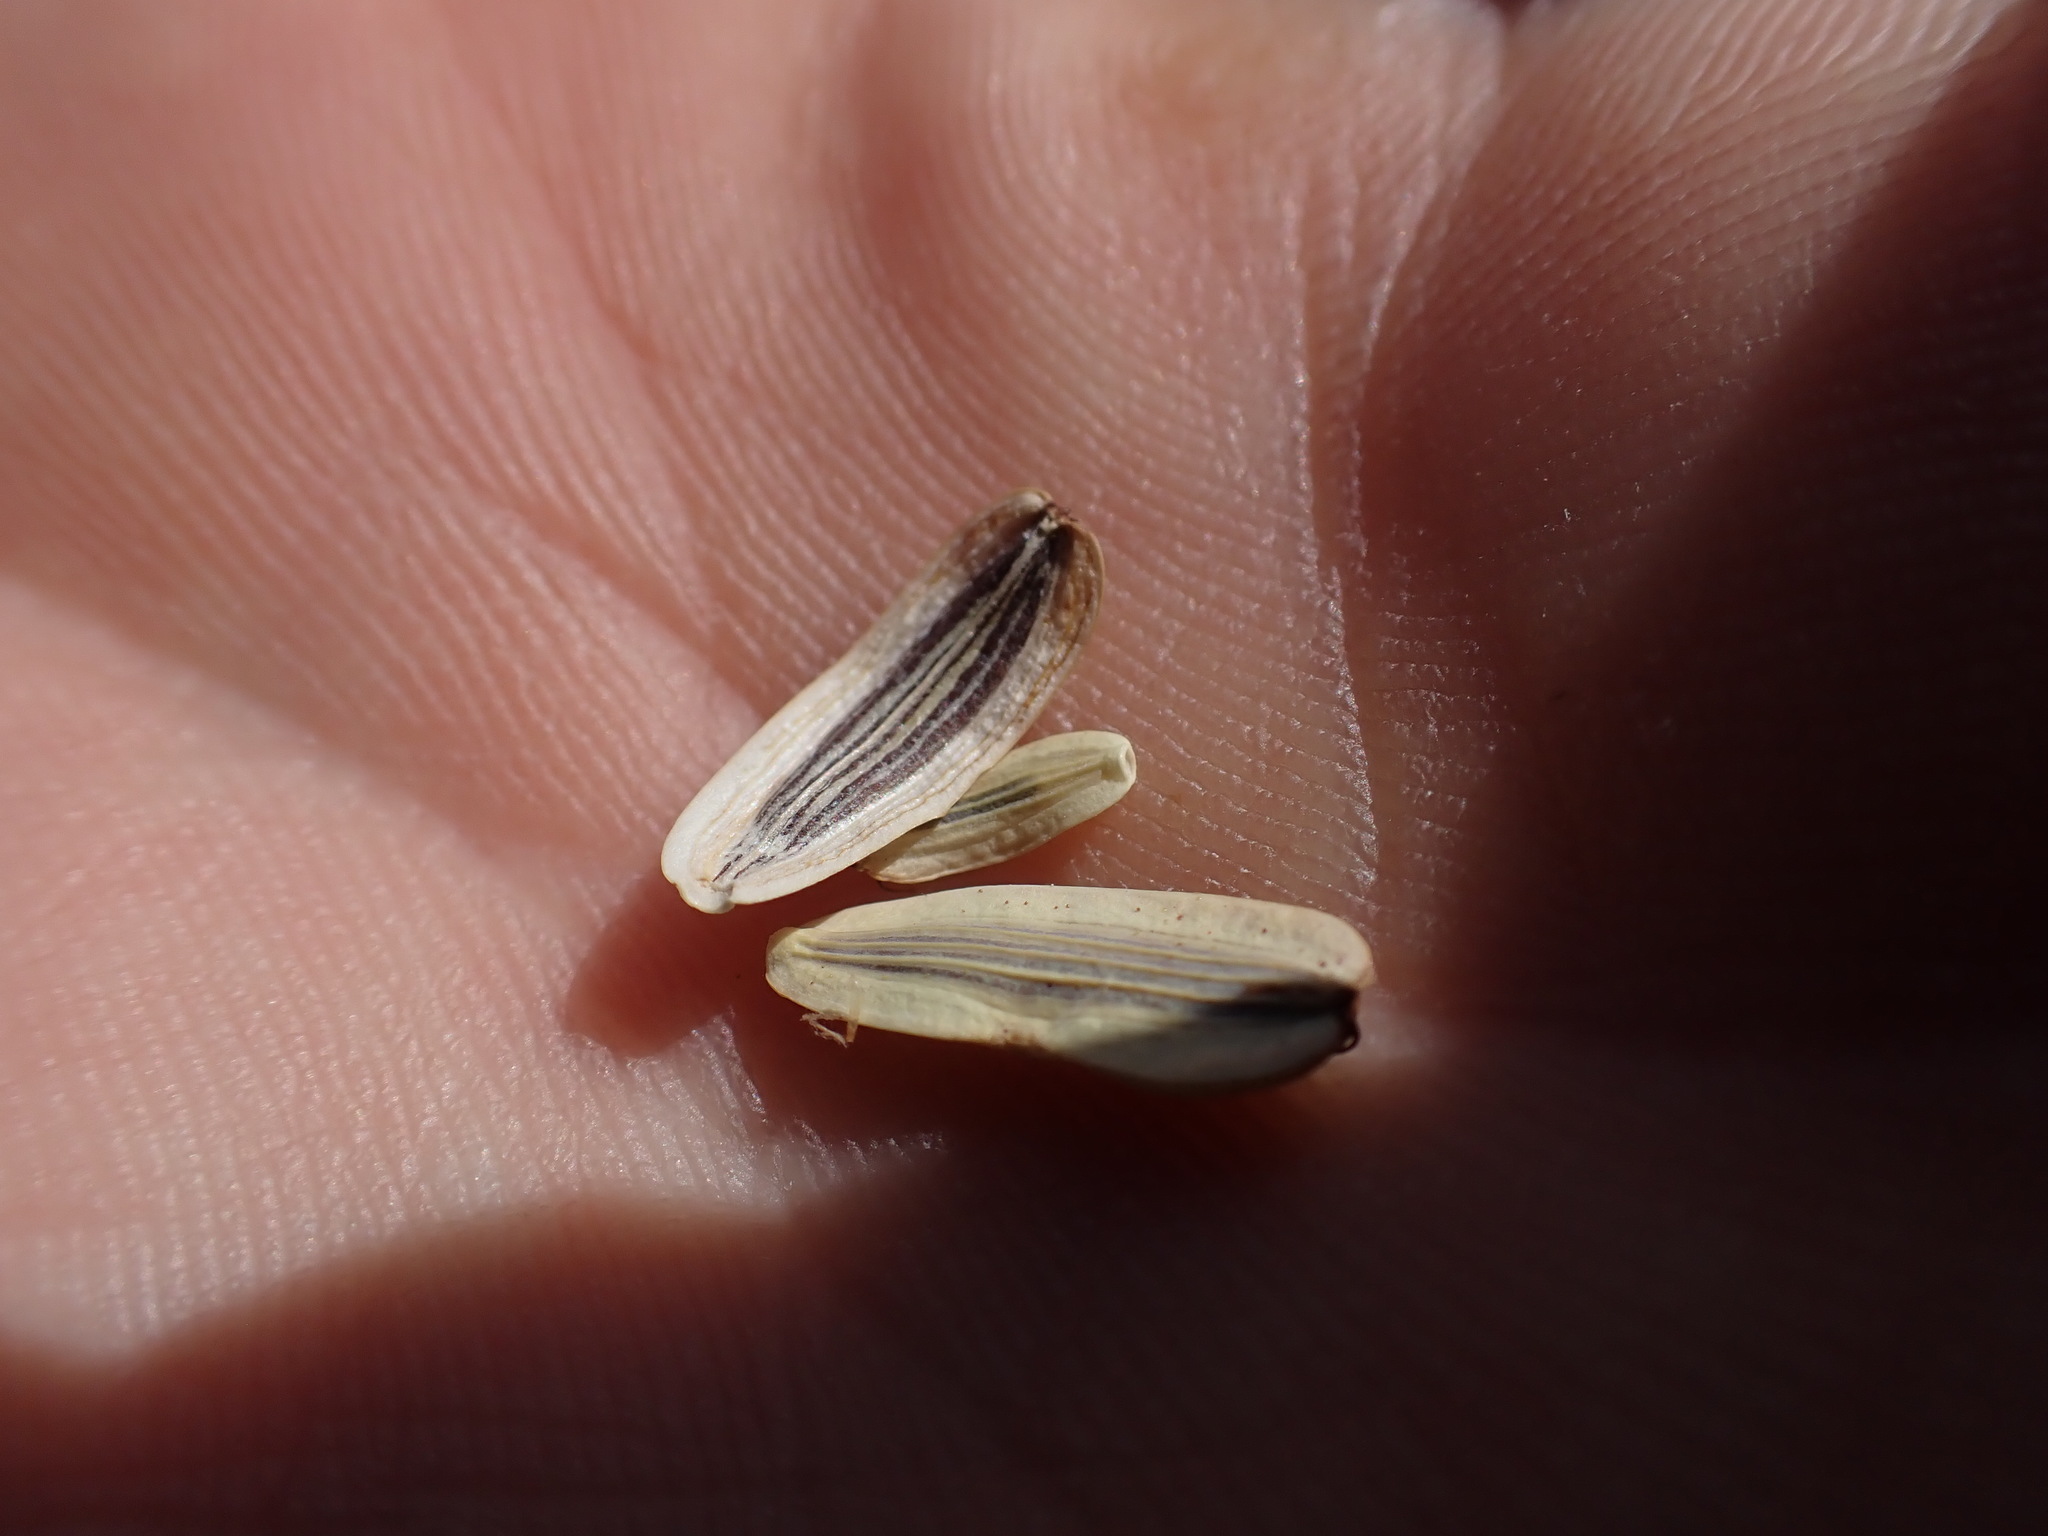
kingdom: Plantae
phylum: Tracheophyta
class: Magnoliopsida
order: Apiales
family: Apiaceae
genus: Lomatium
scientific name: Lomatium nudicaule
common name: Pestle lomatium
